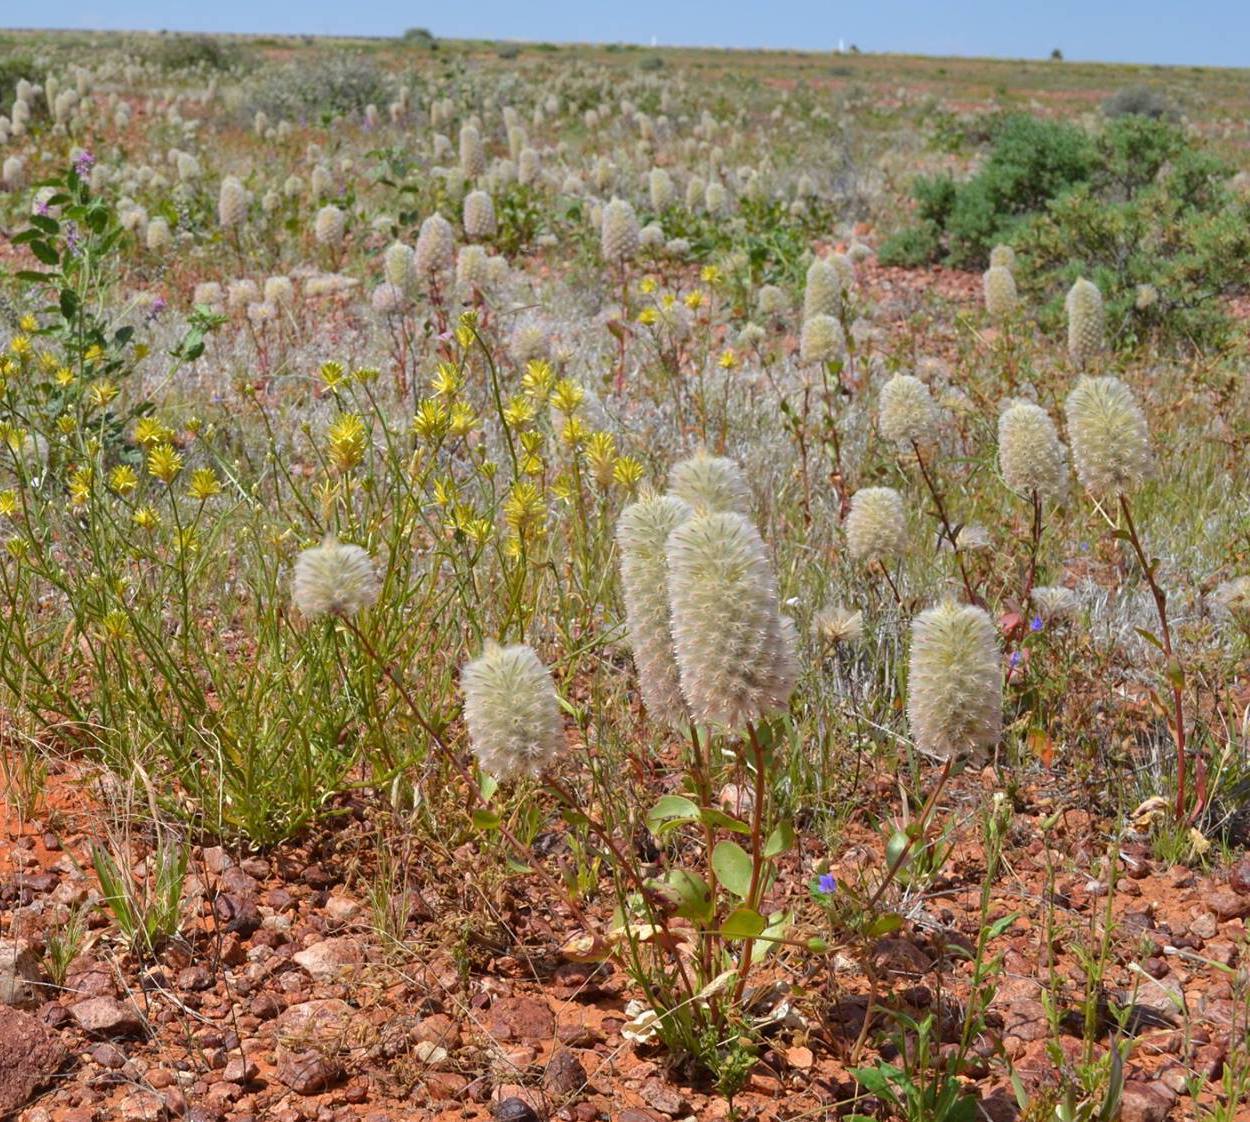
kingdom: Plantae
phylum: Tracheophyta
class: Magnoliopsida
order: Caryophyllales
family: Amaranthaceae
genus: Ptilotus
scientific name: Ptilotus nobilis
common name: Regal-foxtail
